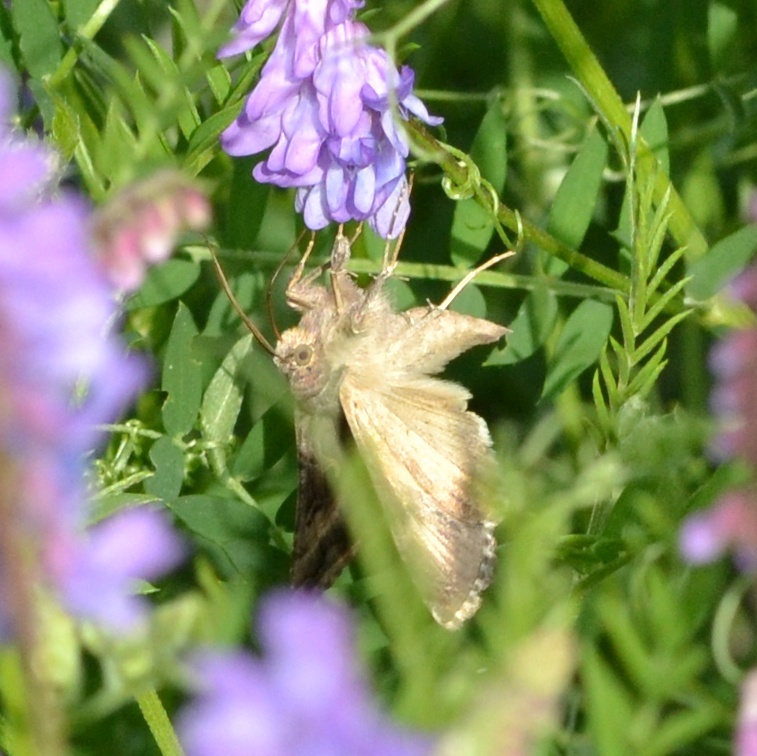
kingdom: Animalia
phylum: Arthropoda
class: Insecta
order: Lepidoptera
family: Noctuidae
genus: Autographa
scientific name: Autographa gamma
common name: Silver y
